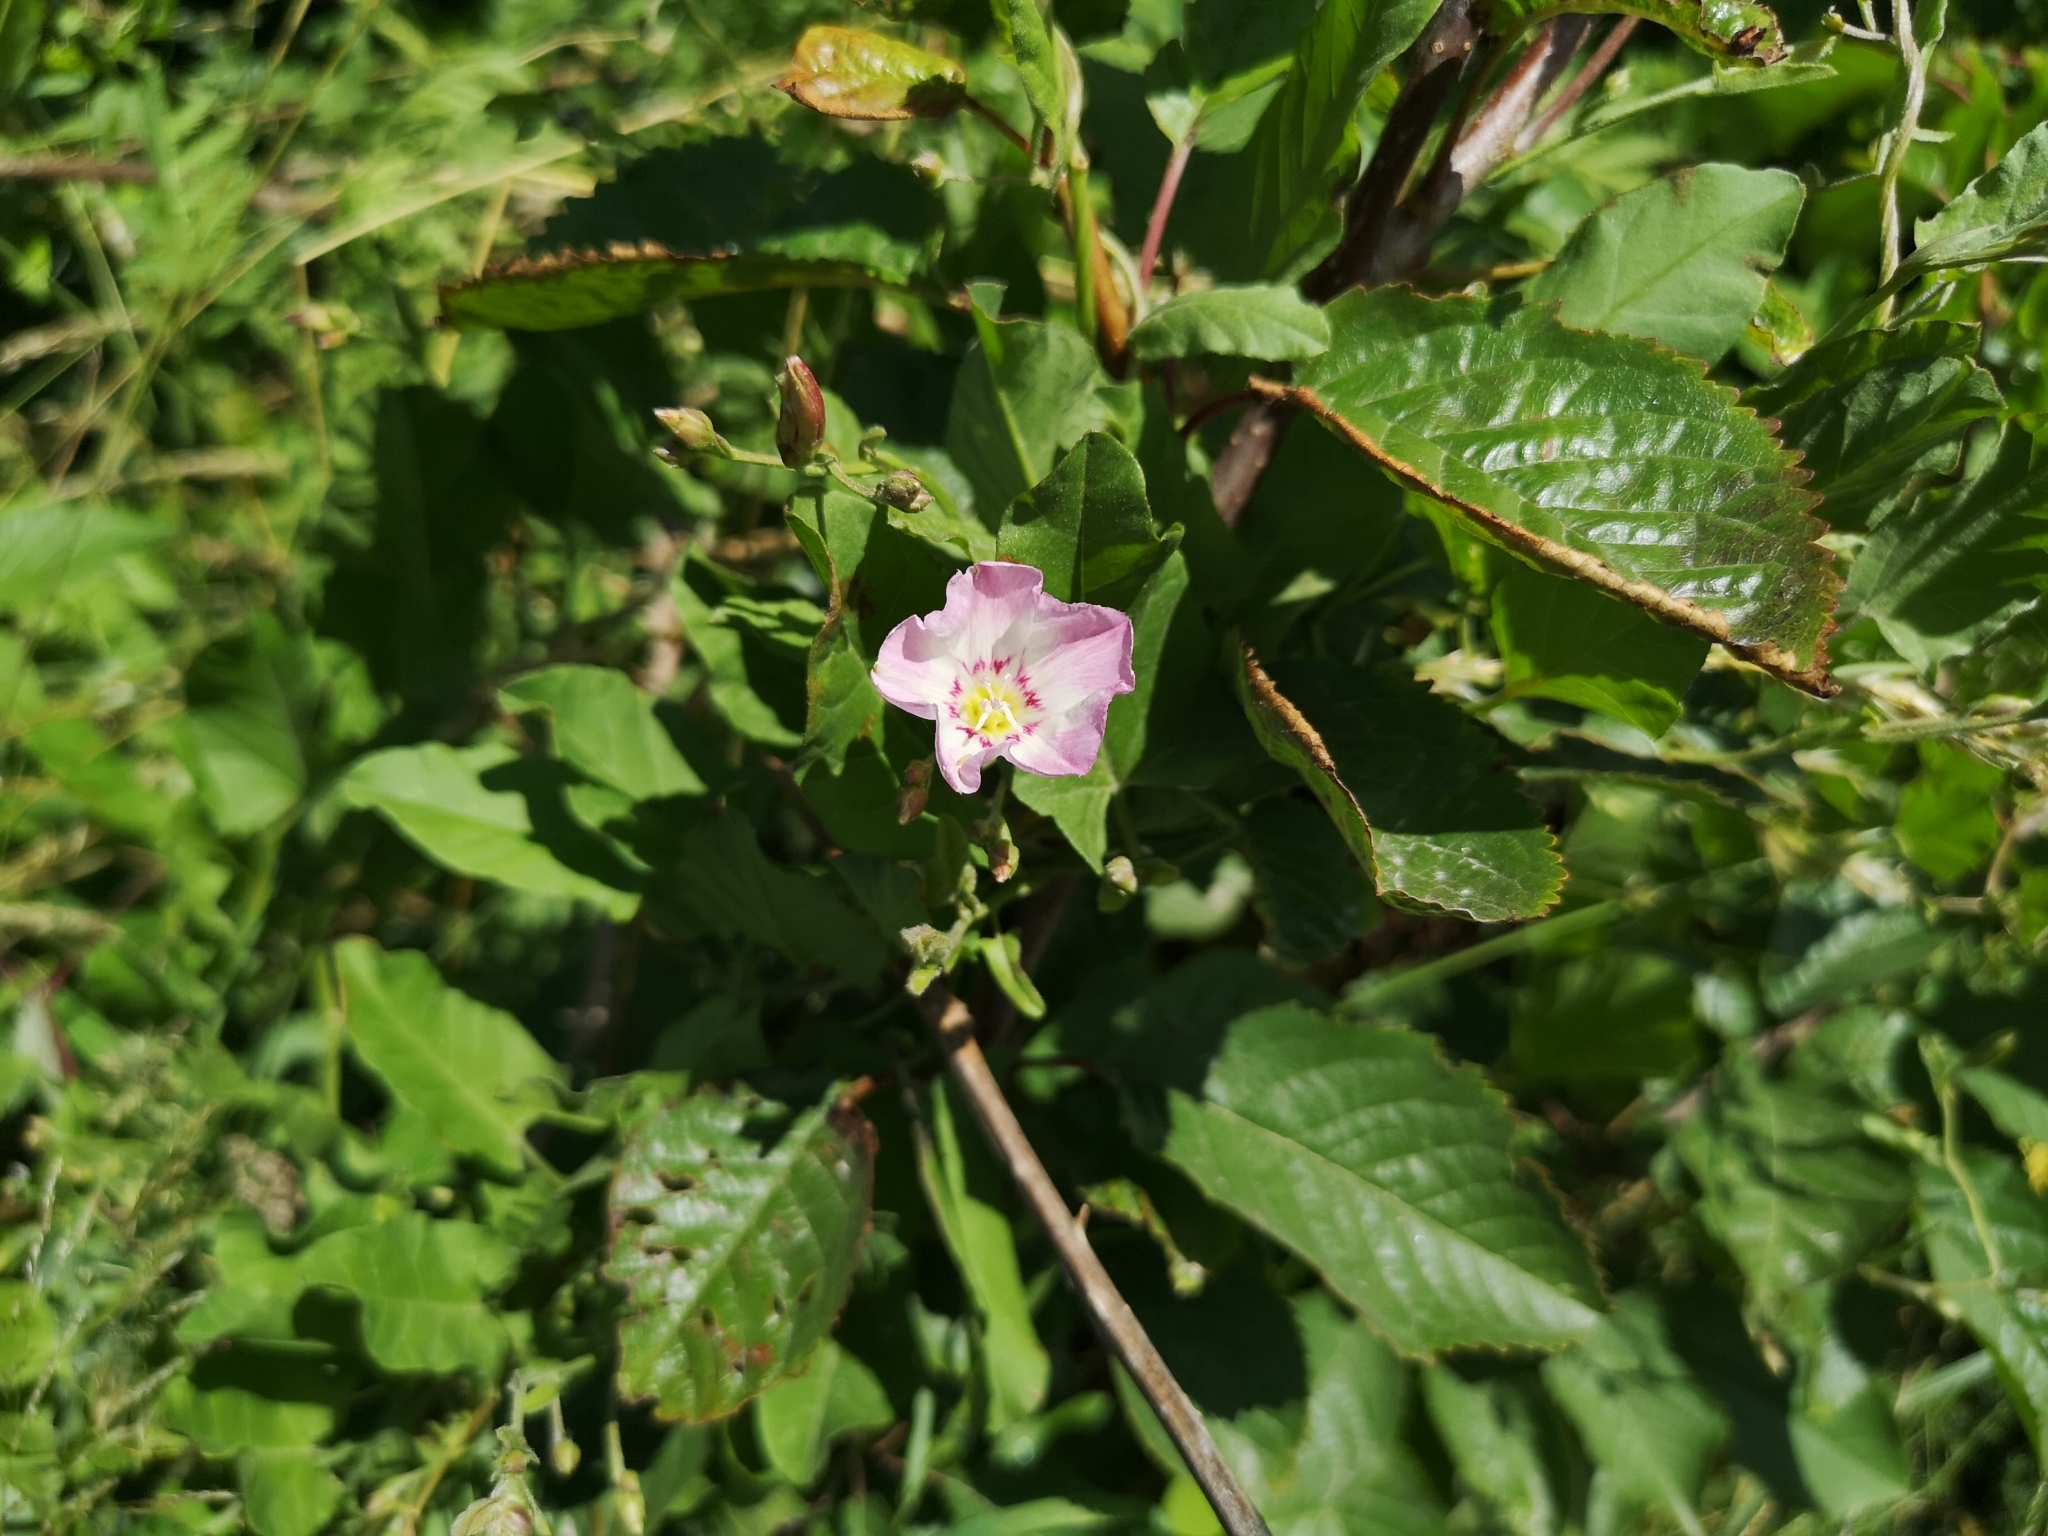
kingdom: Plantae
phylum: Tracheophyta
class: Magnoliopsida
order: Solanales
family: Convolvulaceae
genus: Convolvulus
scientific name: Convolvulus arvensis
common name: Field bindweed
